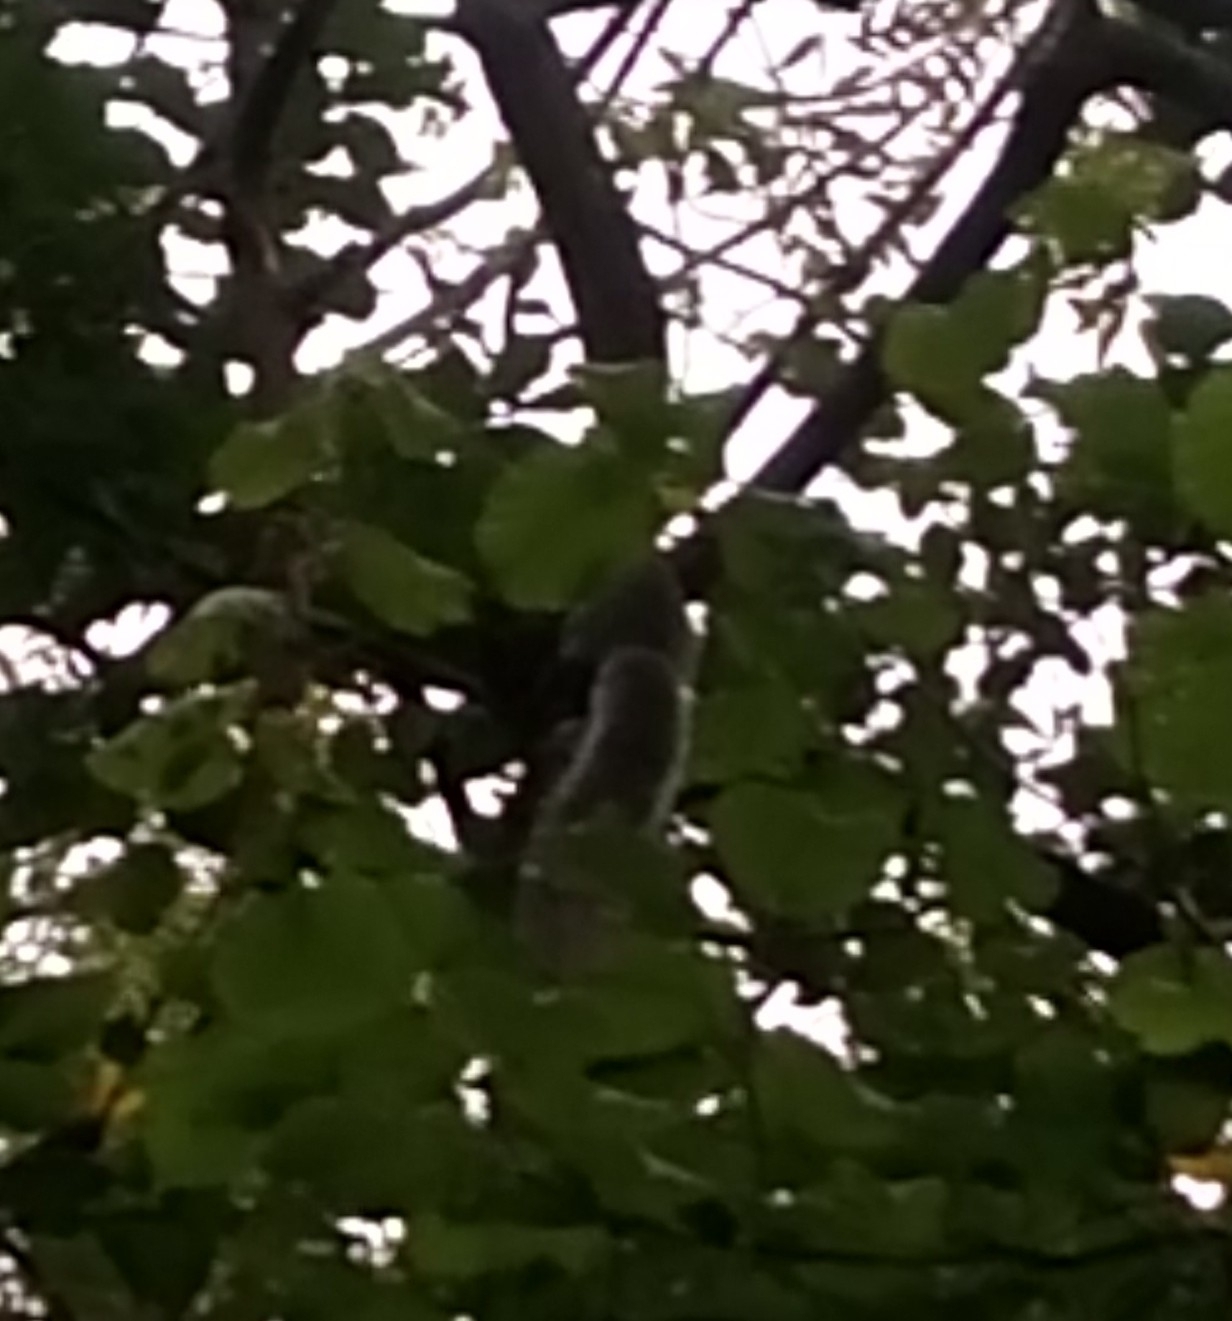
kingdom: Animalia
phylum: Chordata
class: Mammalia
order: Rodentia
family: Sciuridae
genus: Sciurus
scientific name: Sciurus carolinensis
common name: Eastern gray squirrel
